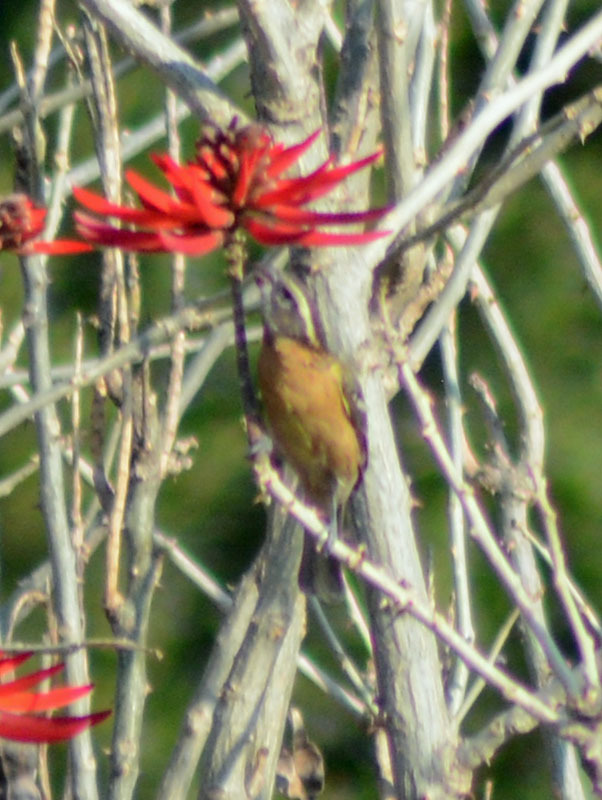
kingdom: Animalia
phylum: Chordata
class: Aves
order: Passeriformes
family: Cardinalidae
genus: Pheucticus
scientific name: Pheucticus melanocephalus
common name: Black-headed grosbeak
